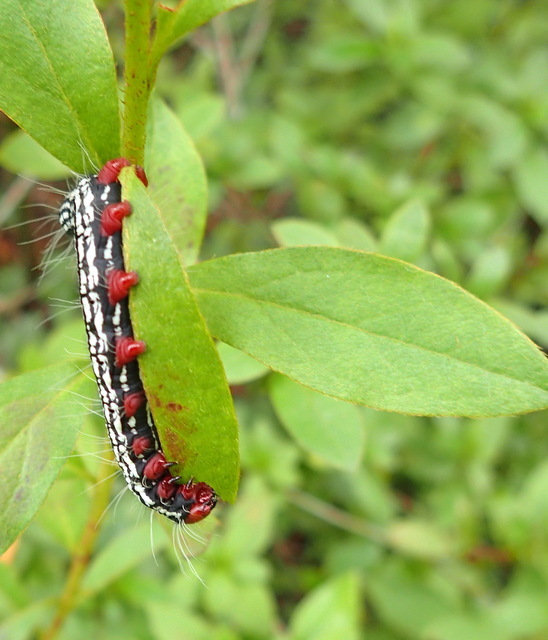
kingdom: Animalia
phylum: Arthropoda
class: Insecta
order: Lepidoptera
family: Notodontidae
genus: Datana
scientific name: Datana major
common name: Azalea caterpillar
